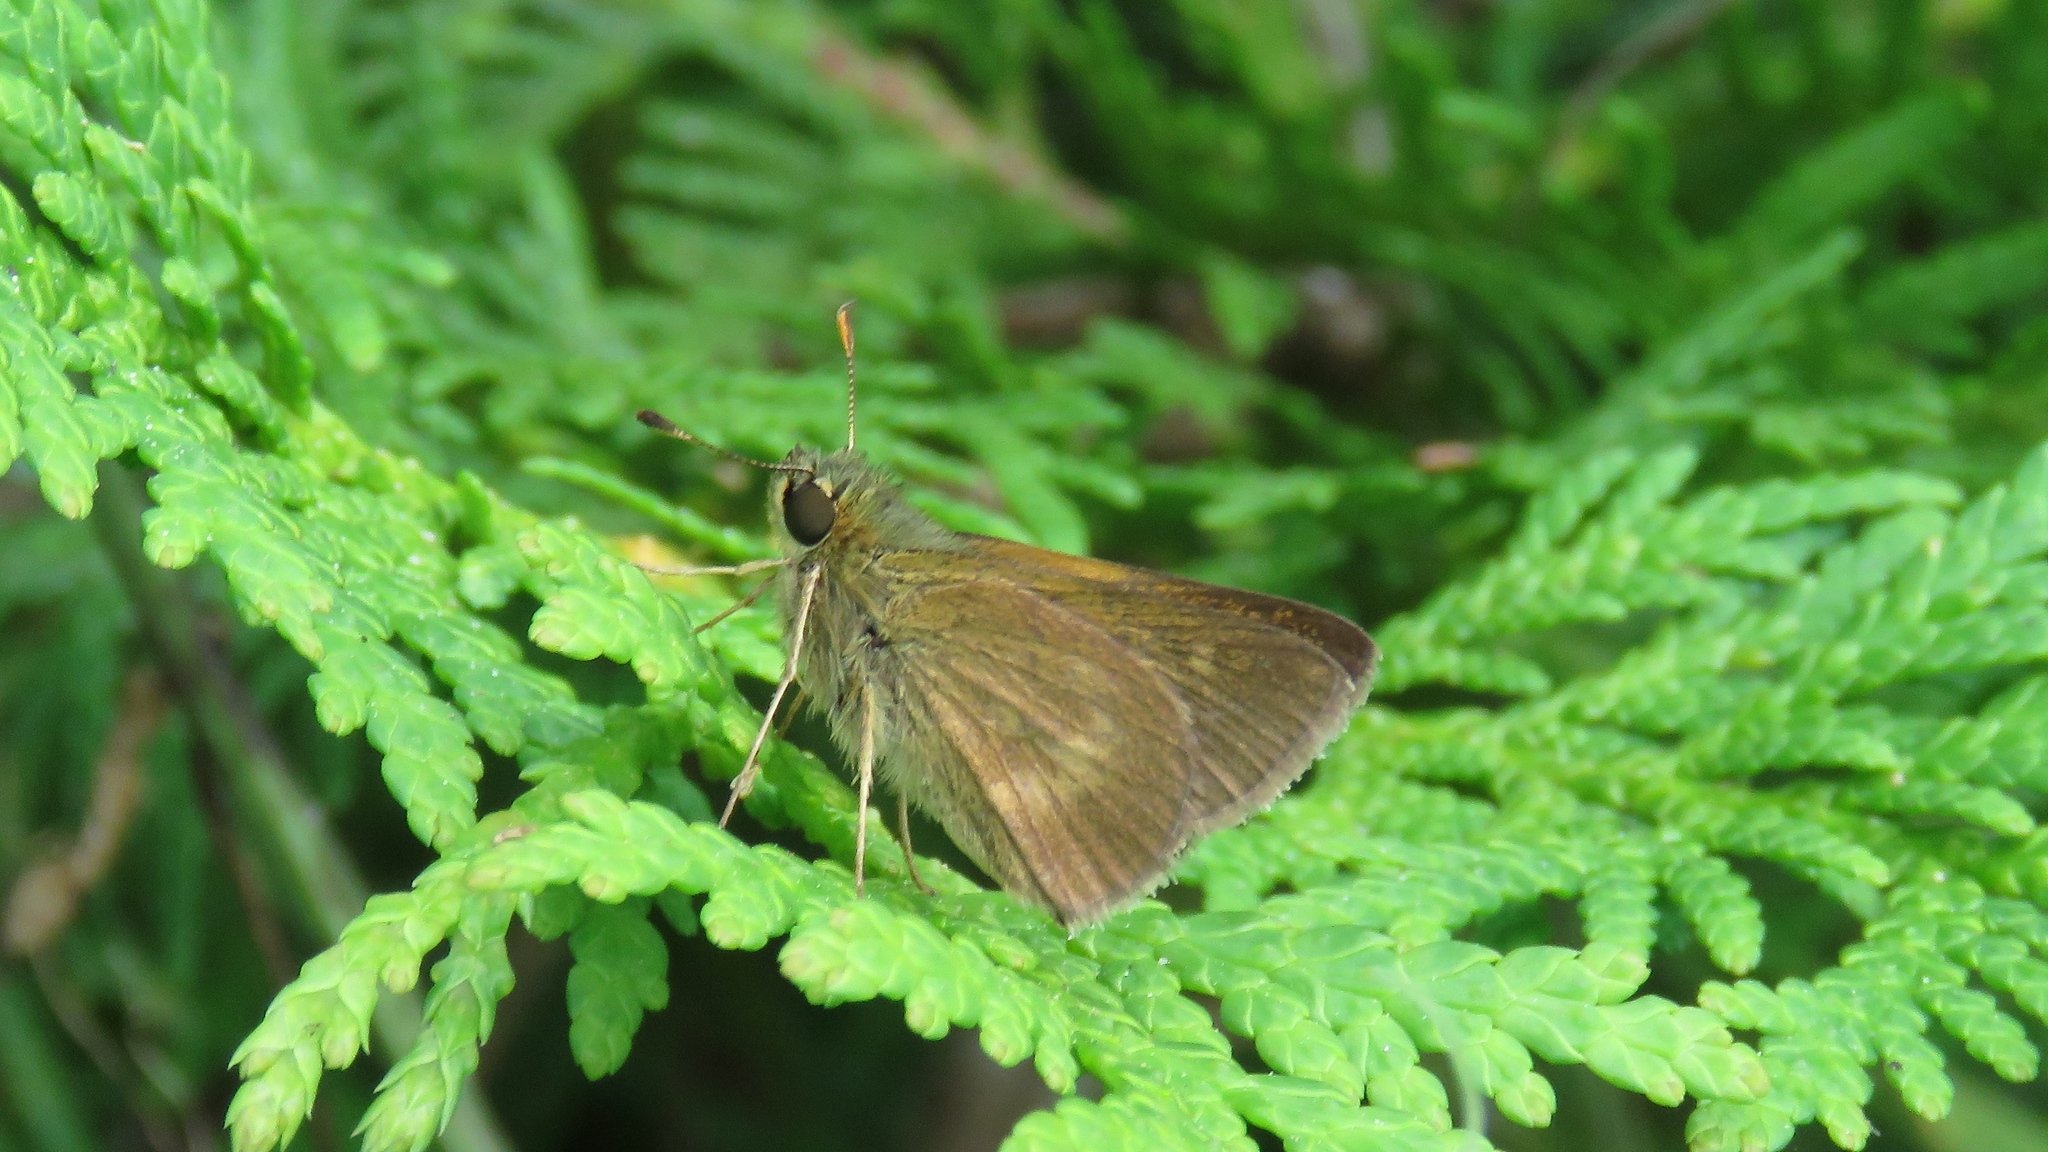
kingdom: Animalia
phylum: Arthropoda
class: Insecta
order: Lepidoptera
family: Hesperiidae
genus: Polites
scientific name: Polites egeremet
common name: Northern broken-dash
